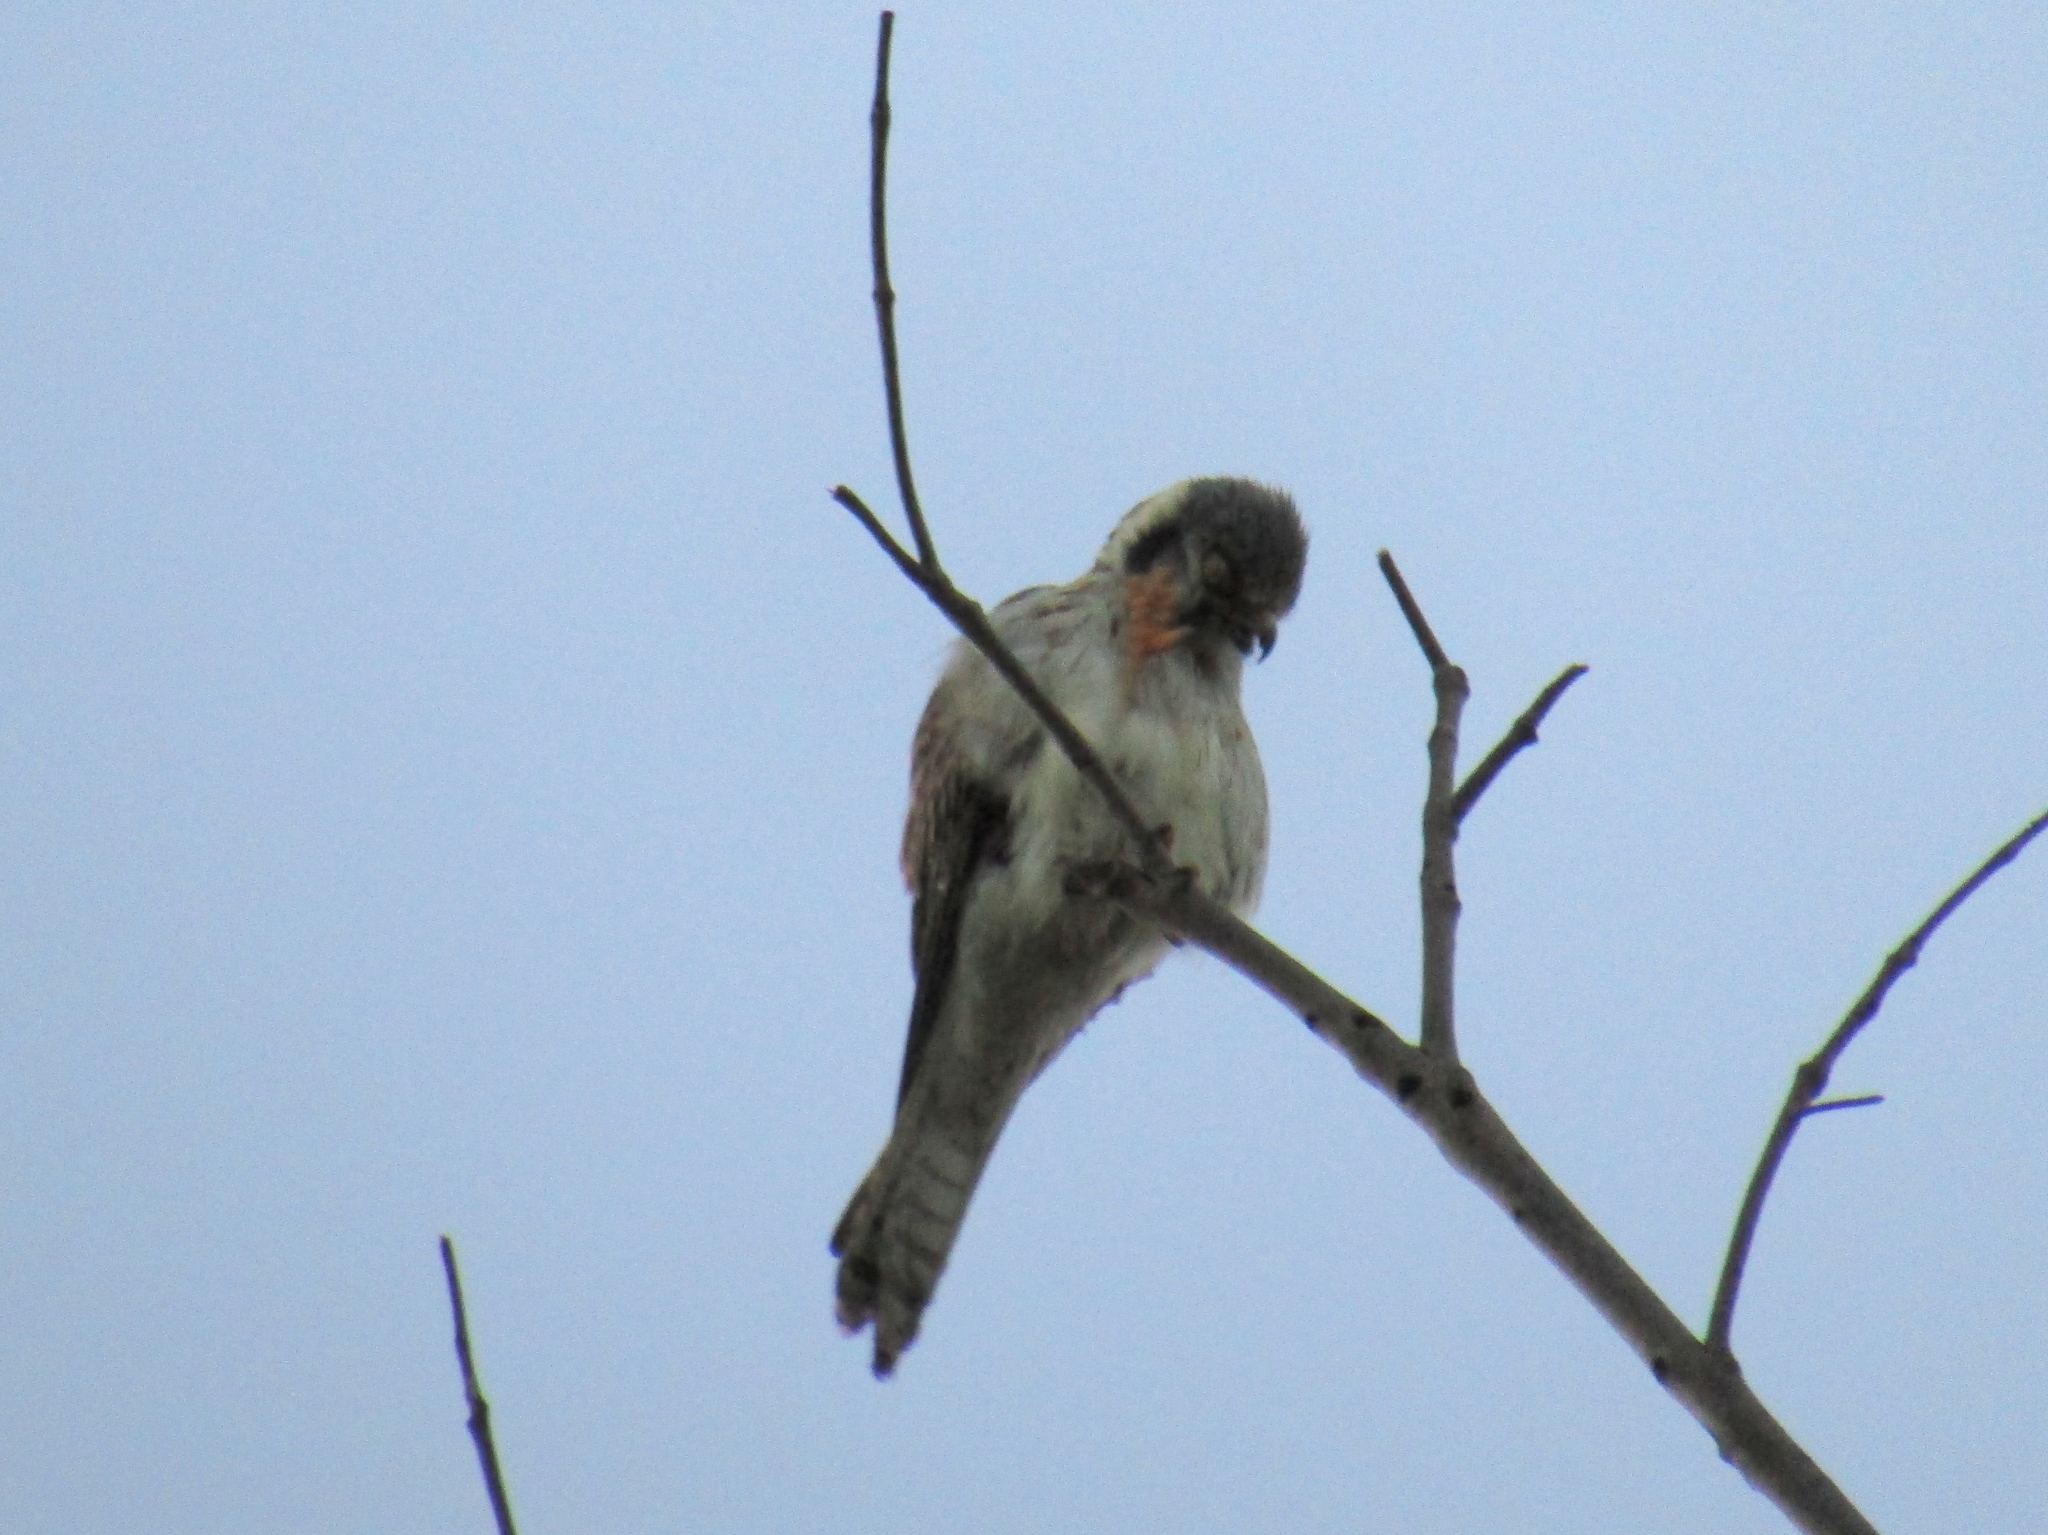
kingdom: Animalia
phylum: Chordata
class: Aves
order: Falconiformes
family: Falconidae
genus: Falco
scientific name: Falco sparverius
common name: American kestrel
